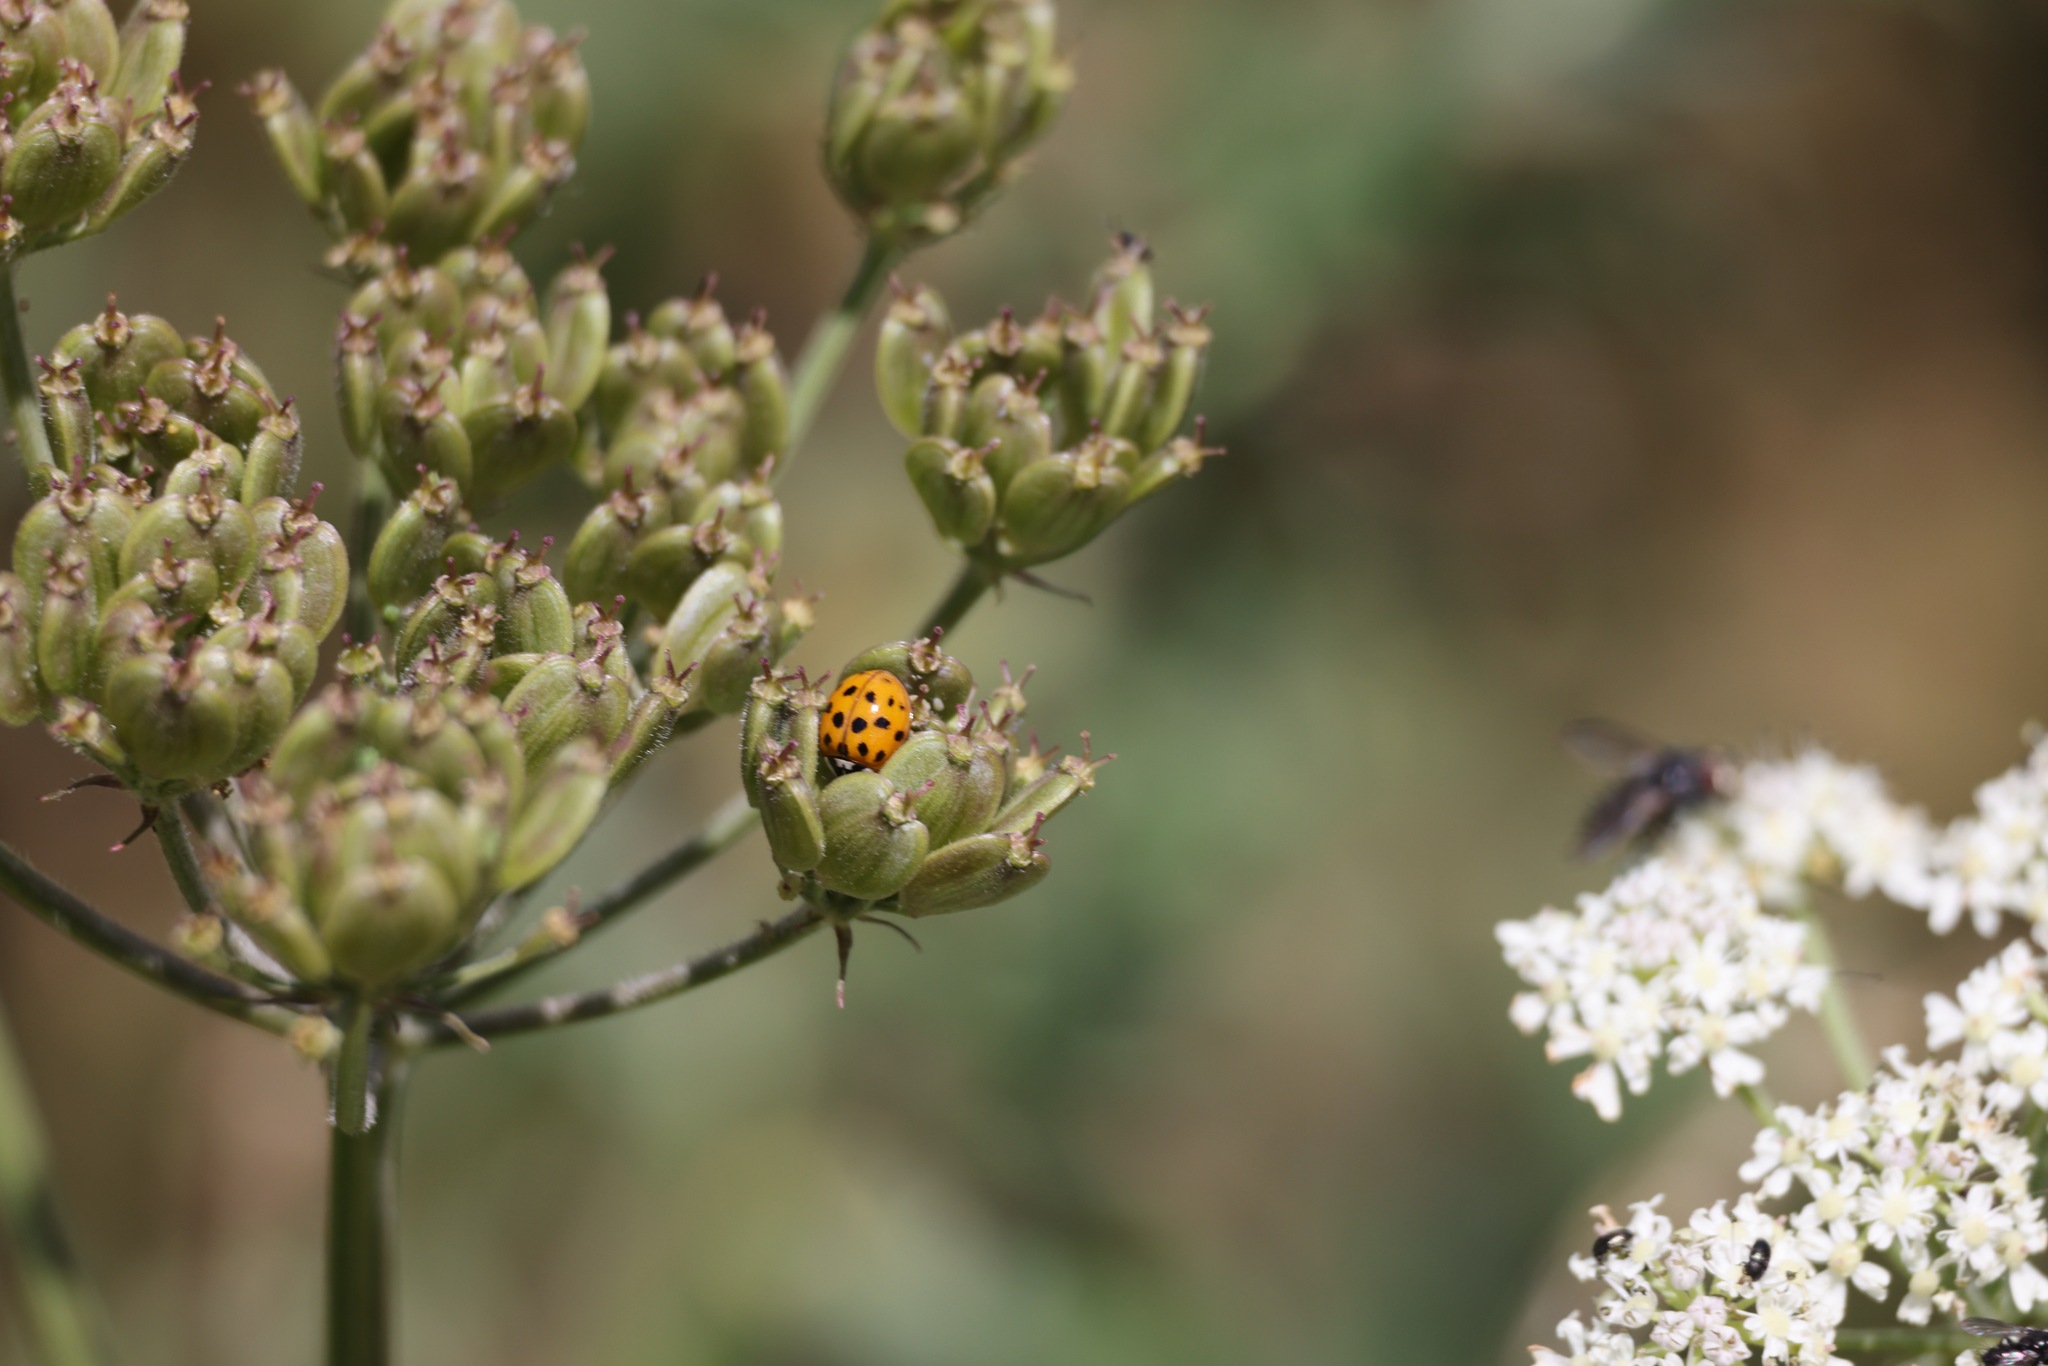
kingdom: Animalia
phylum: Arthropoda
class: Insecta
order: Coleoptera
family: Coccinellidae
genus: Harmonia
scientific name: Harmonia axyridis
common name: Harlequin ladybird
